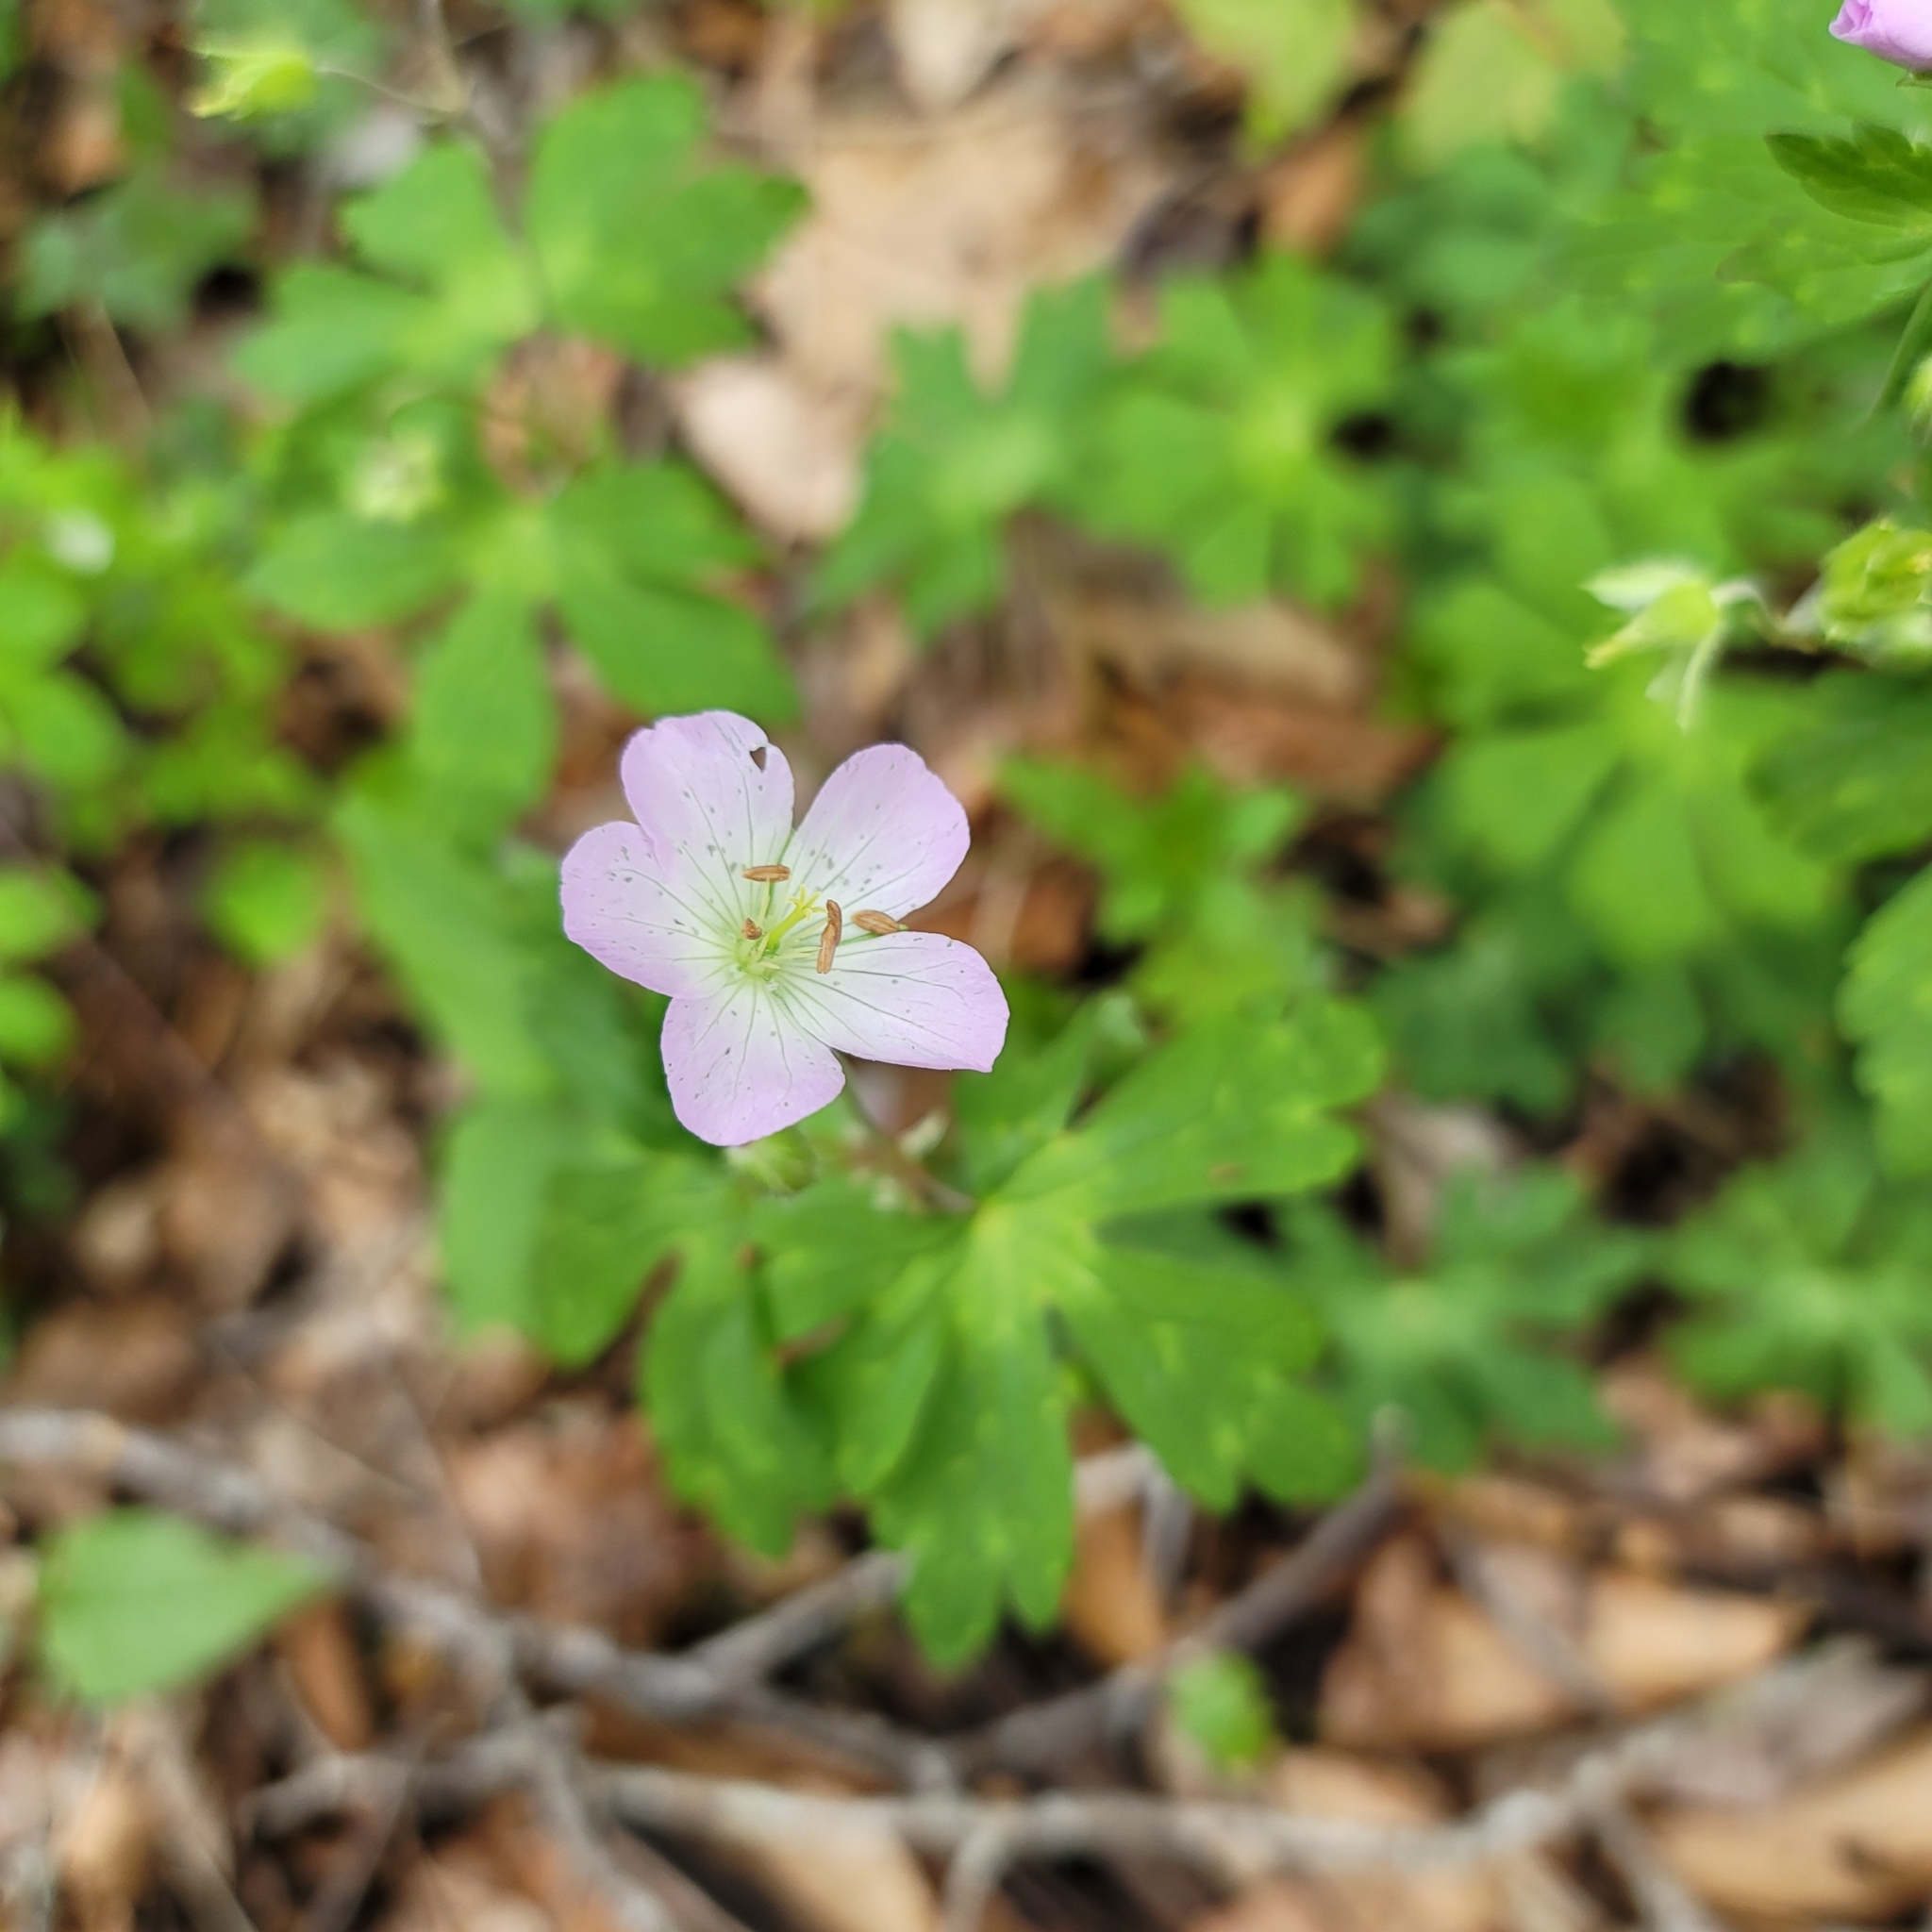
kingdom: Plantae
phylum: Tracheophyta
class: Magnoliopsida
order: Geraniales
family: Geraniaceae
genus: Geranium
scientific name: Geranium maculatum
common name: Spotted geranium
